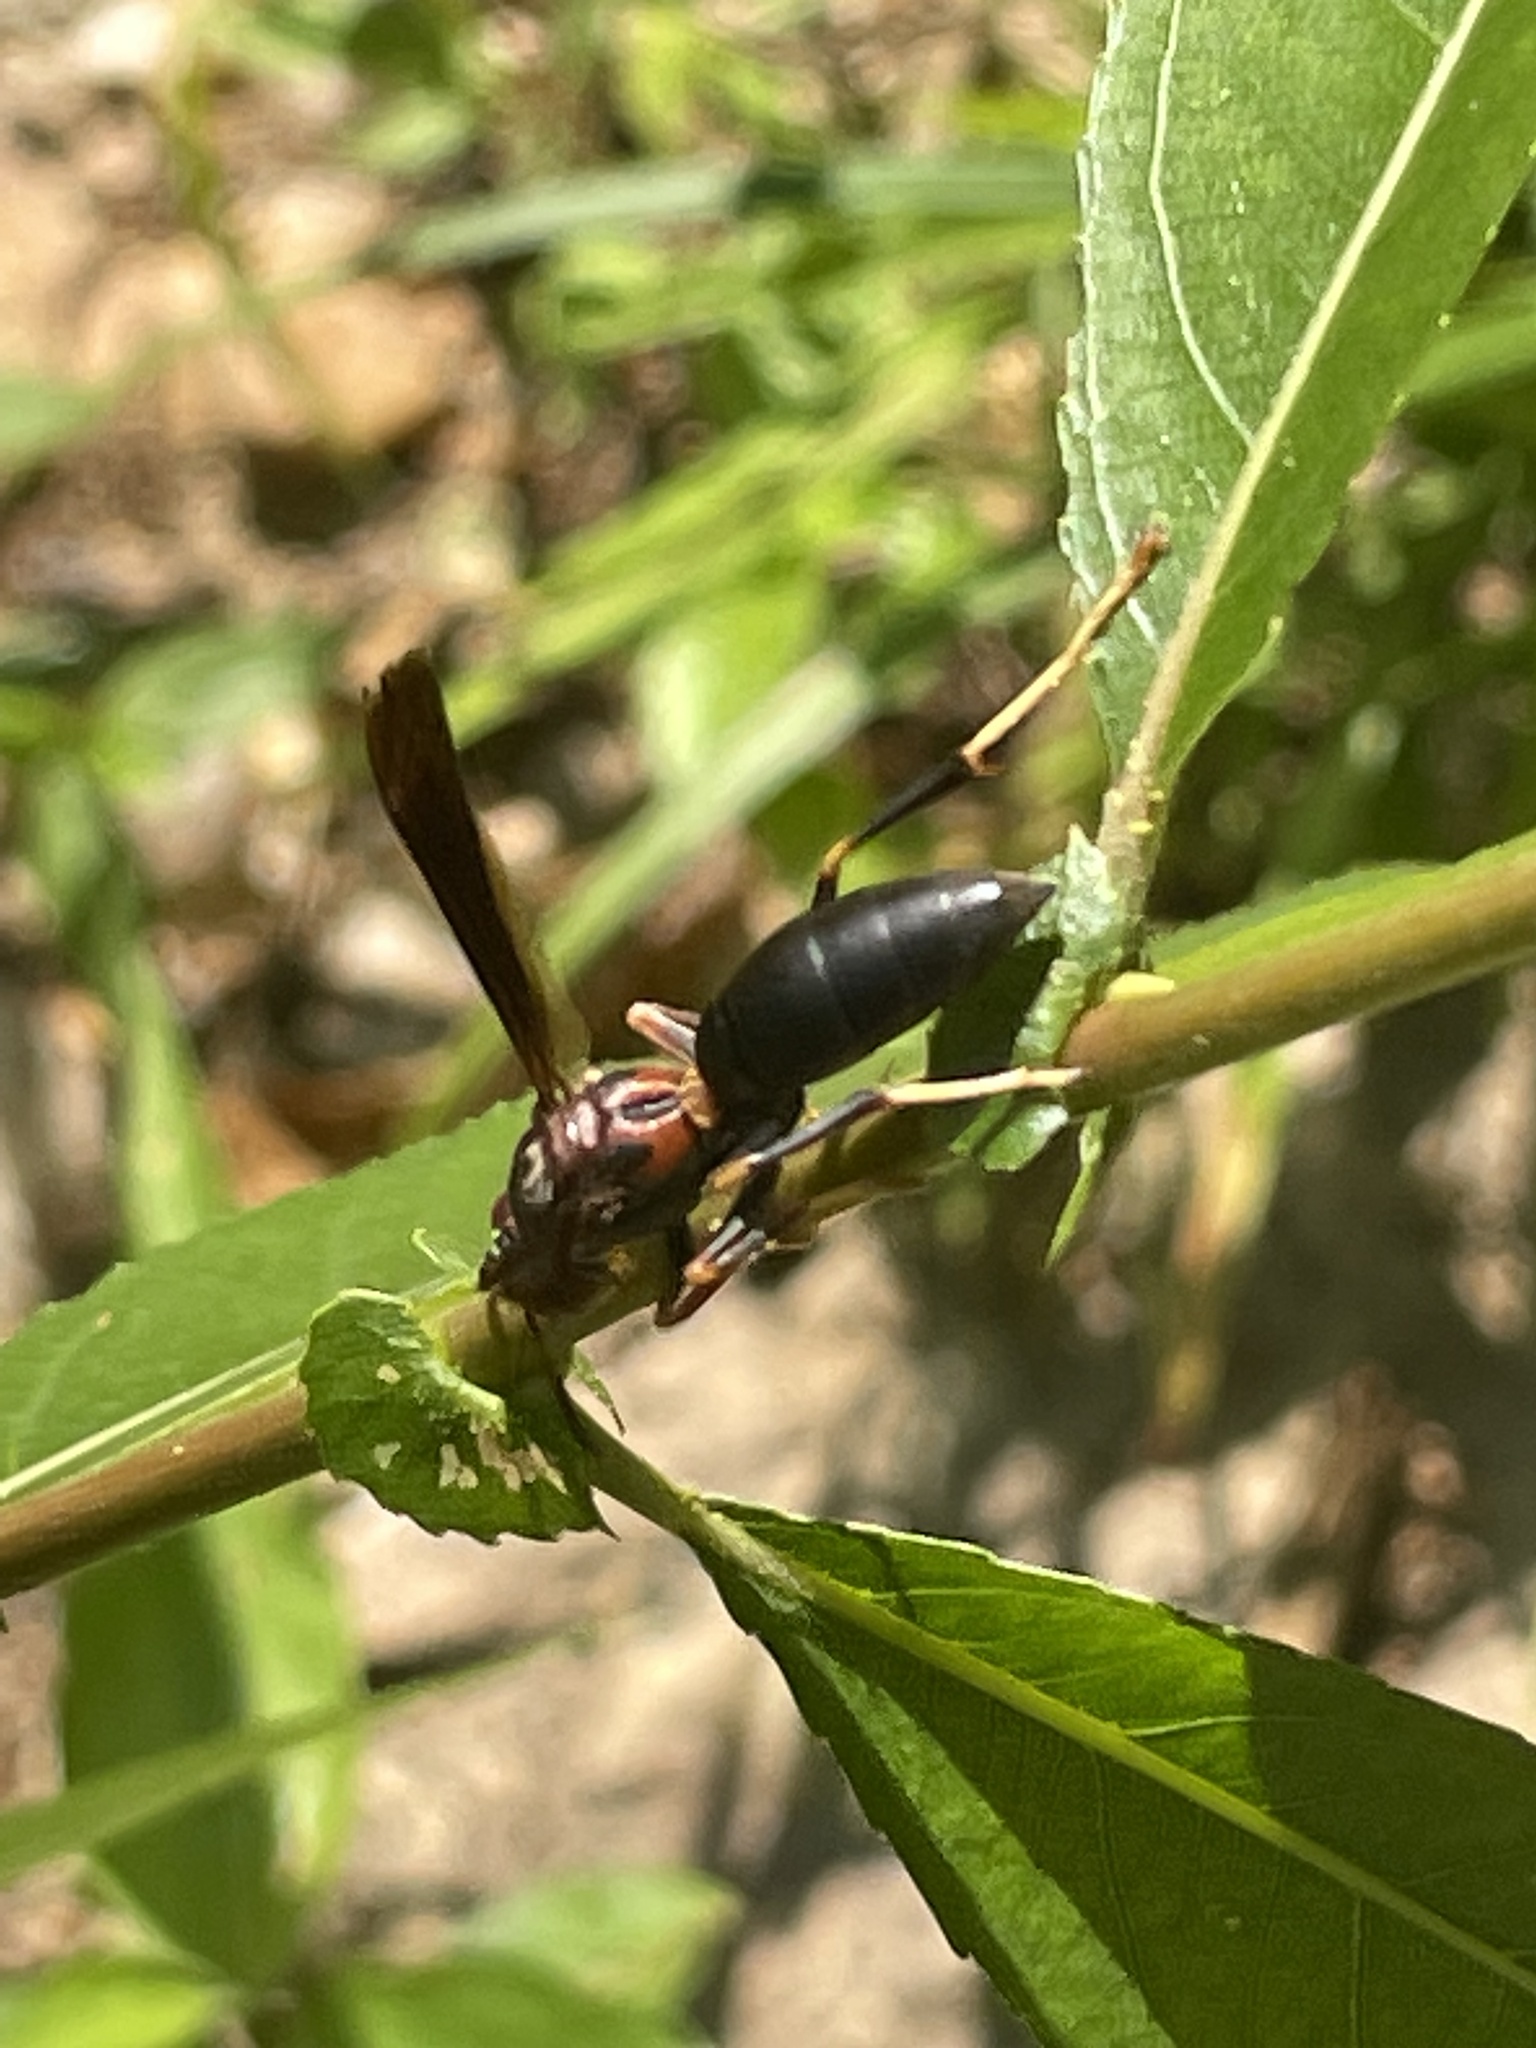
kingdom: Animalia
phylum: Arthropoda
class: Insecta
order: Hymenoptera
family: Eumenidae
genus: Polistes
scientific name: Polistes metricus
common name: Metric paper wasp
